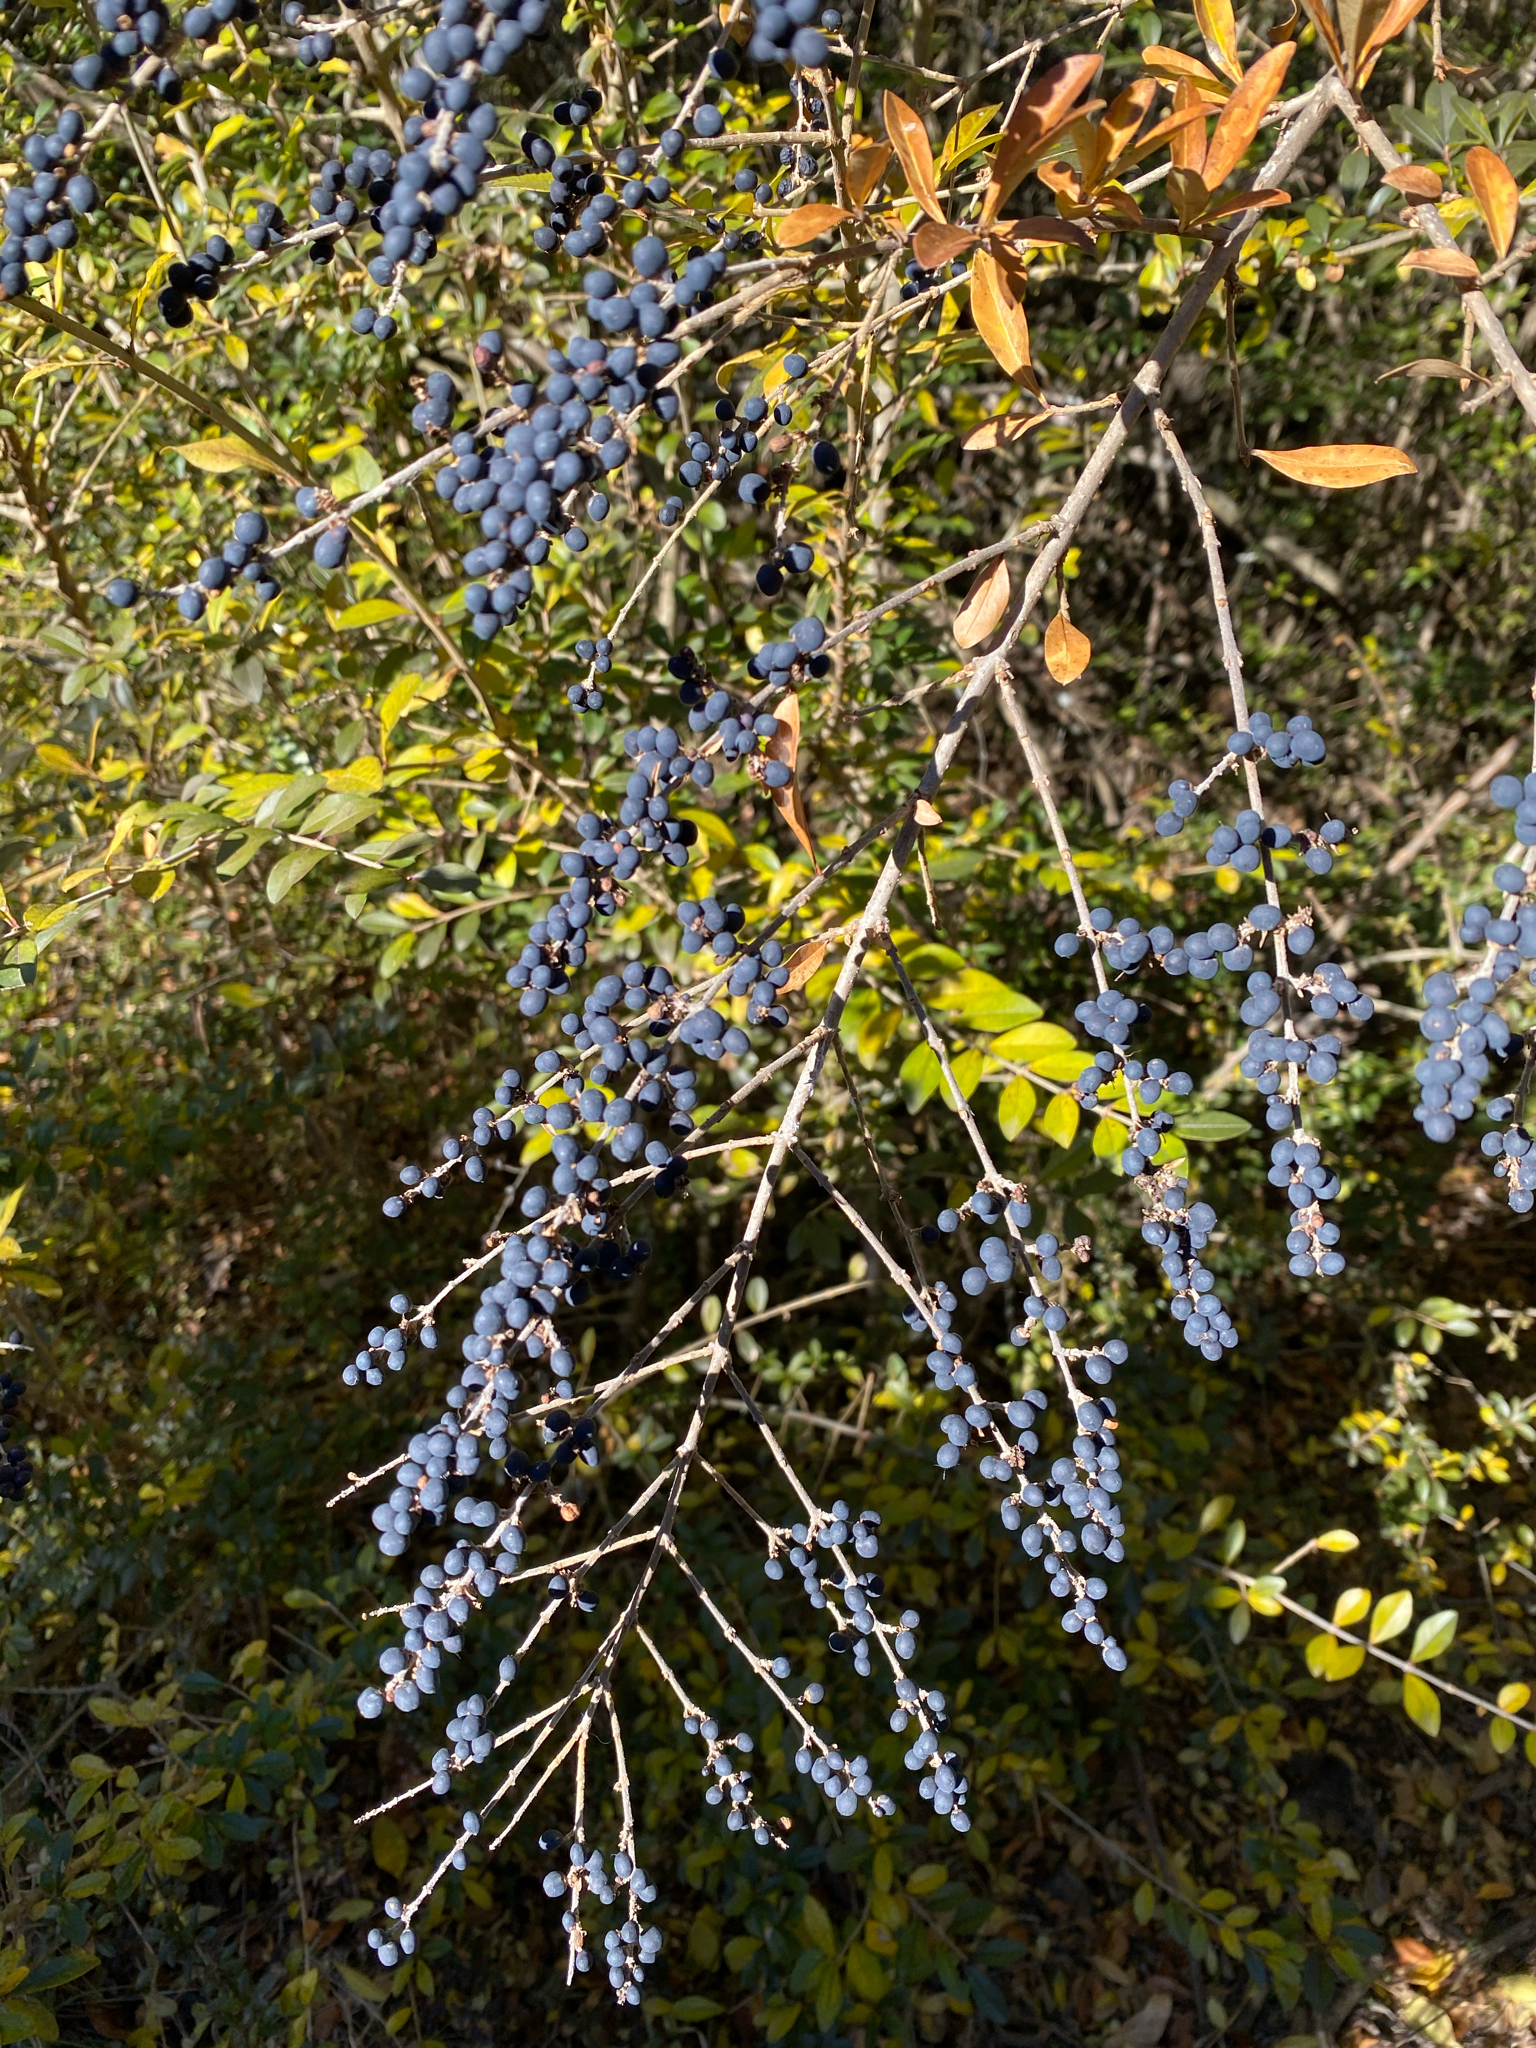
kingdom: Plantae
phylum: Tracheophyta
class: Magnoliopsida
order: Lamiales
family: Oleaceae
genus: Ligustrum
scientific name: Ligustrum quihoui
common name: Waxyleaf privet
